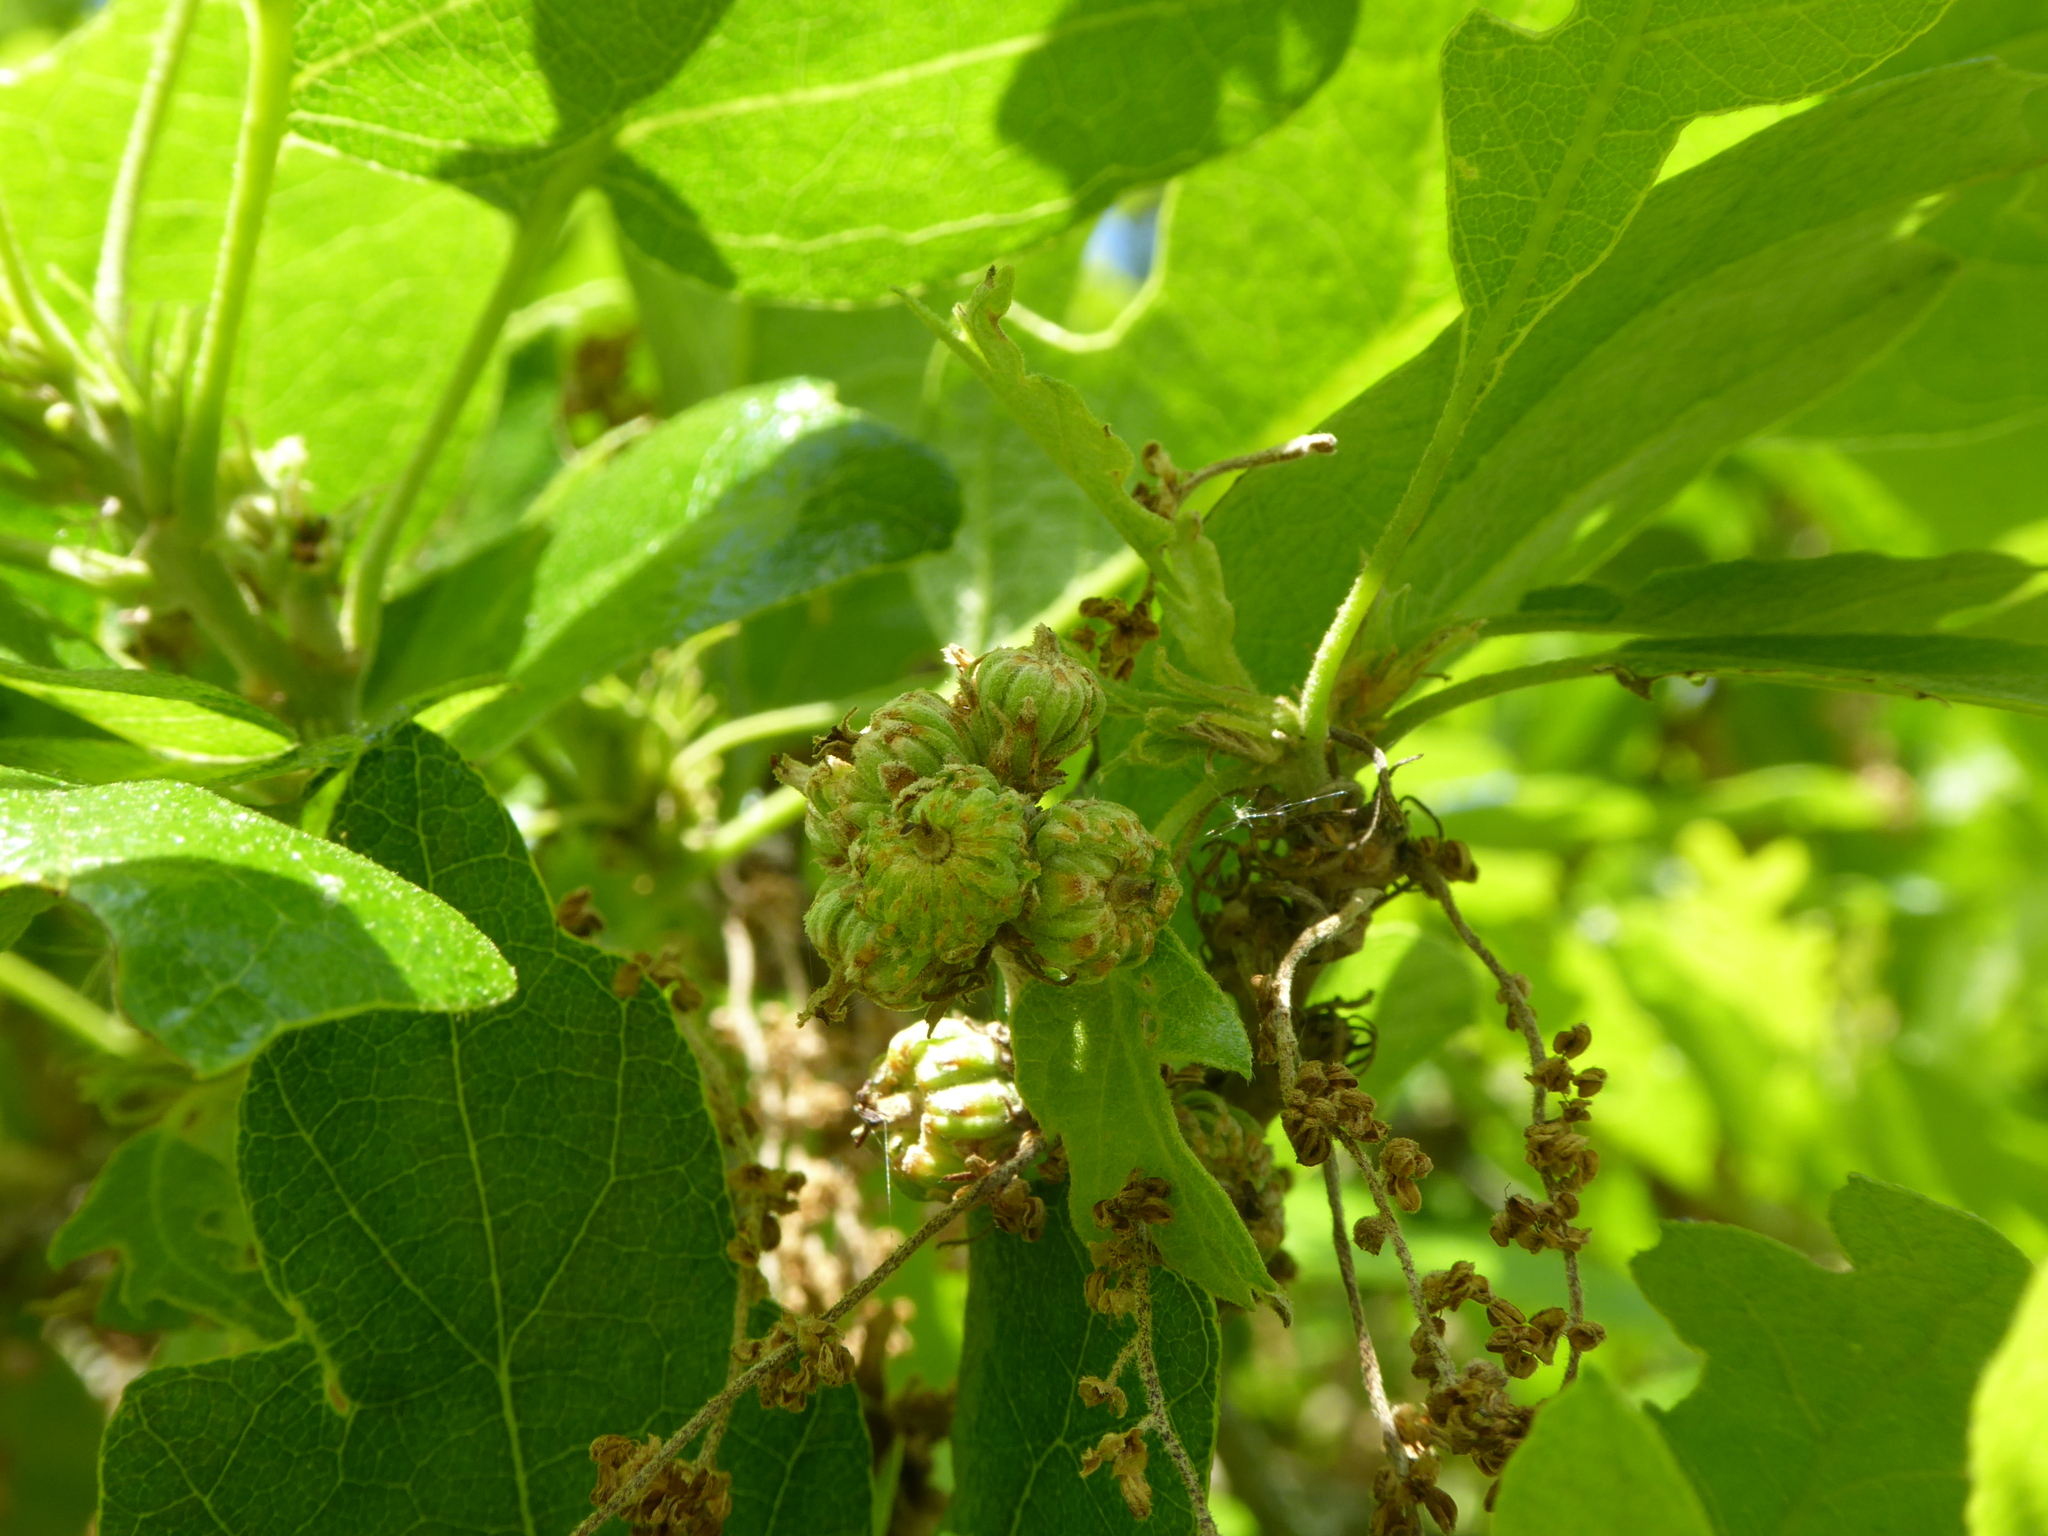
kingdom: Plantae
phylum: Tracheophyta
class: Magnoliopsida
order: Fagales
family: Fagaceae
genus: Quercus
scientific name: Quercus cerris
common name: Turkey oak
